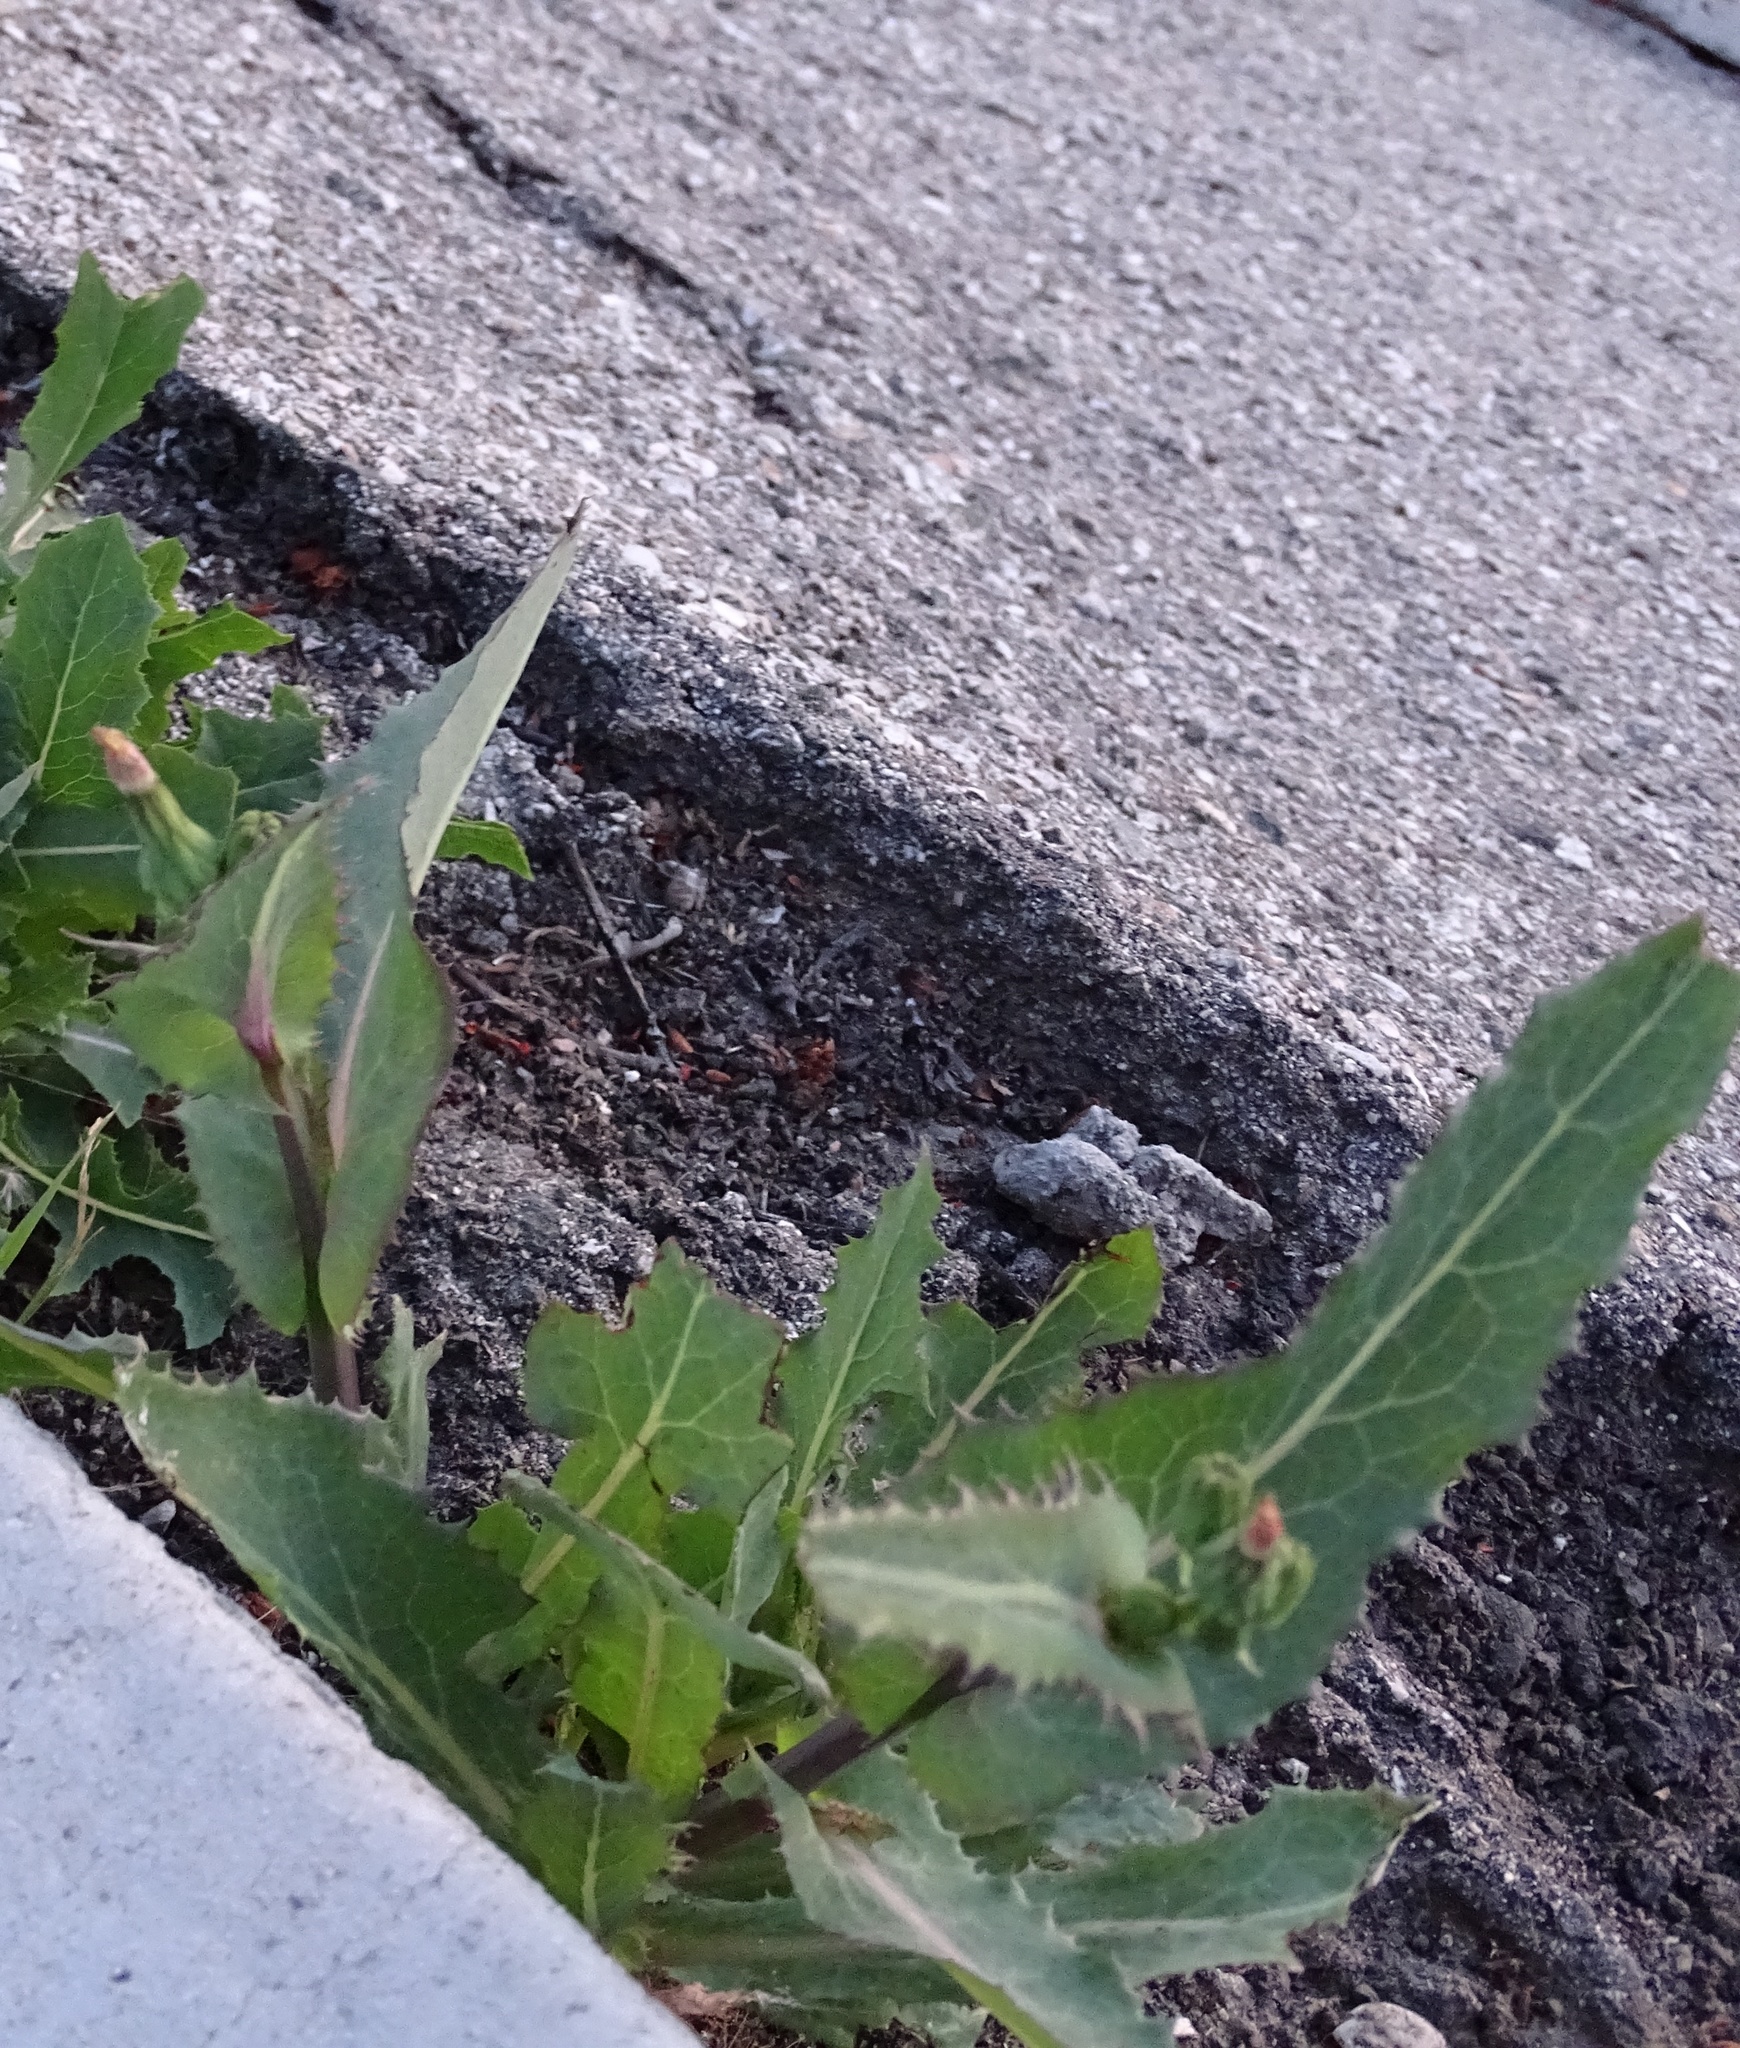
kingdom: Plantae
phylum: Tracheophyta
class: Magnoliopsida
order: Asterales
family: Asteraceae
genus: Sonchus
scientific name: Sonchus oleraceus
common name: Common sowthistle
